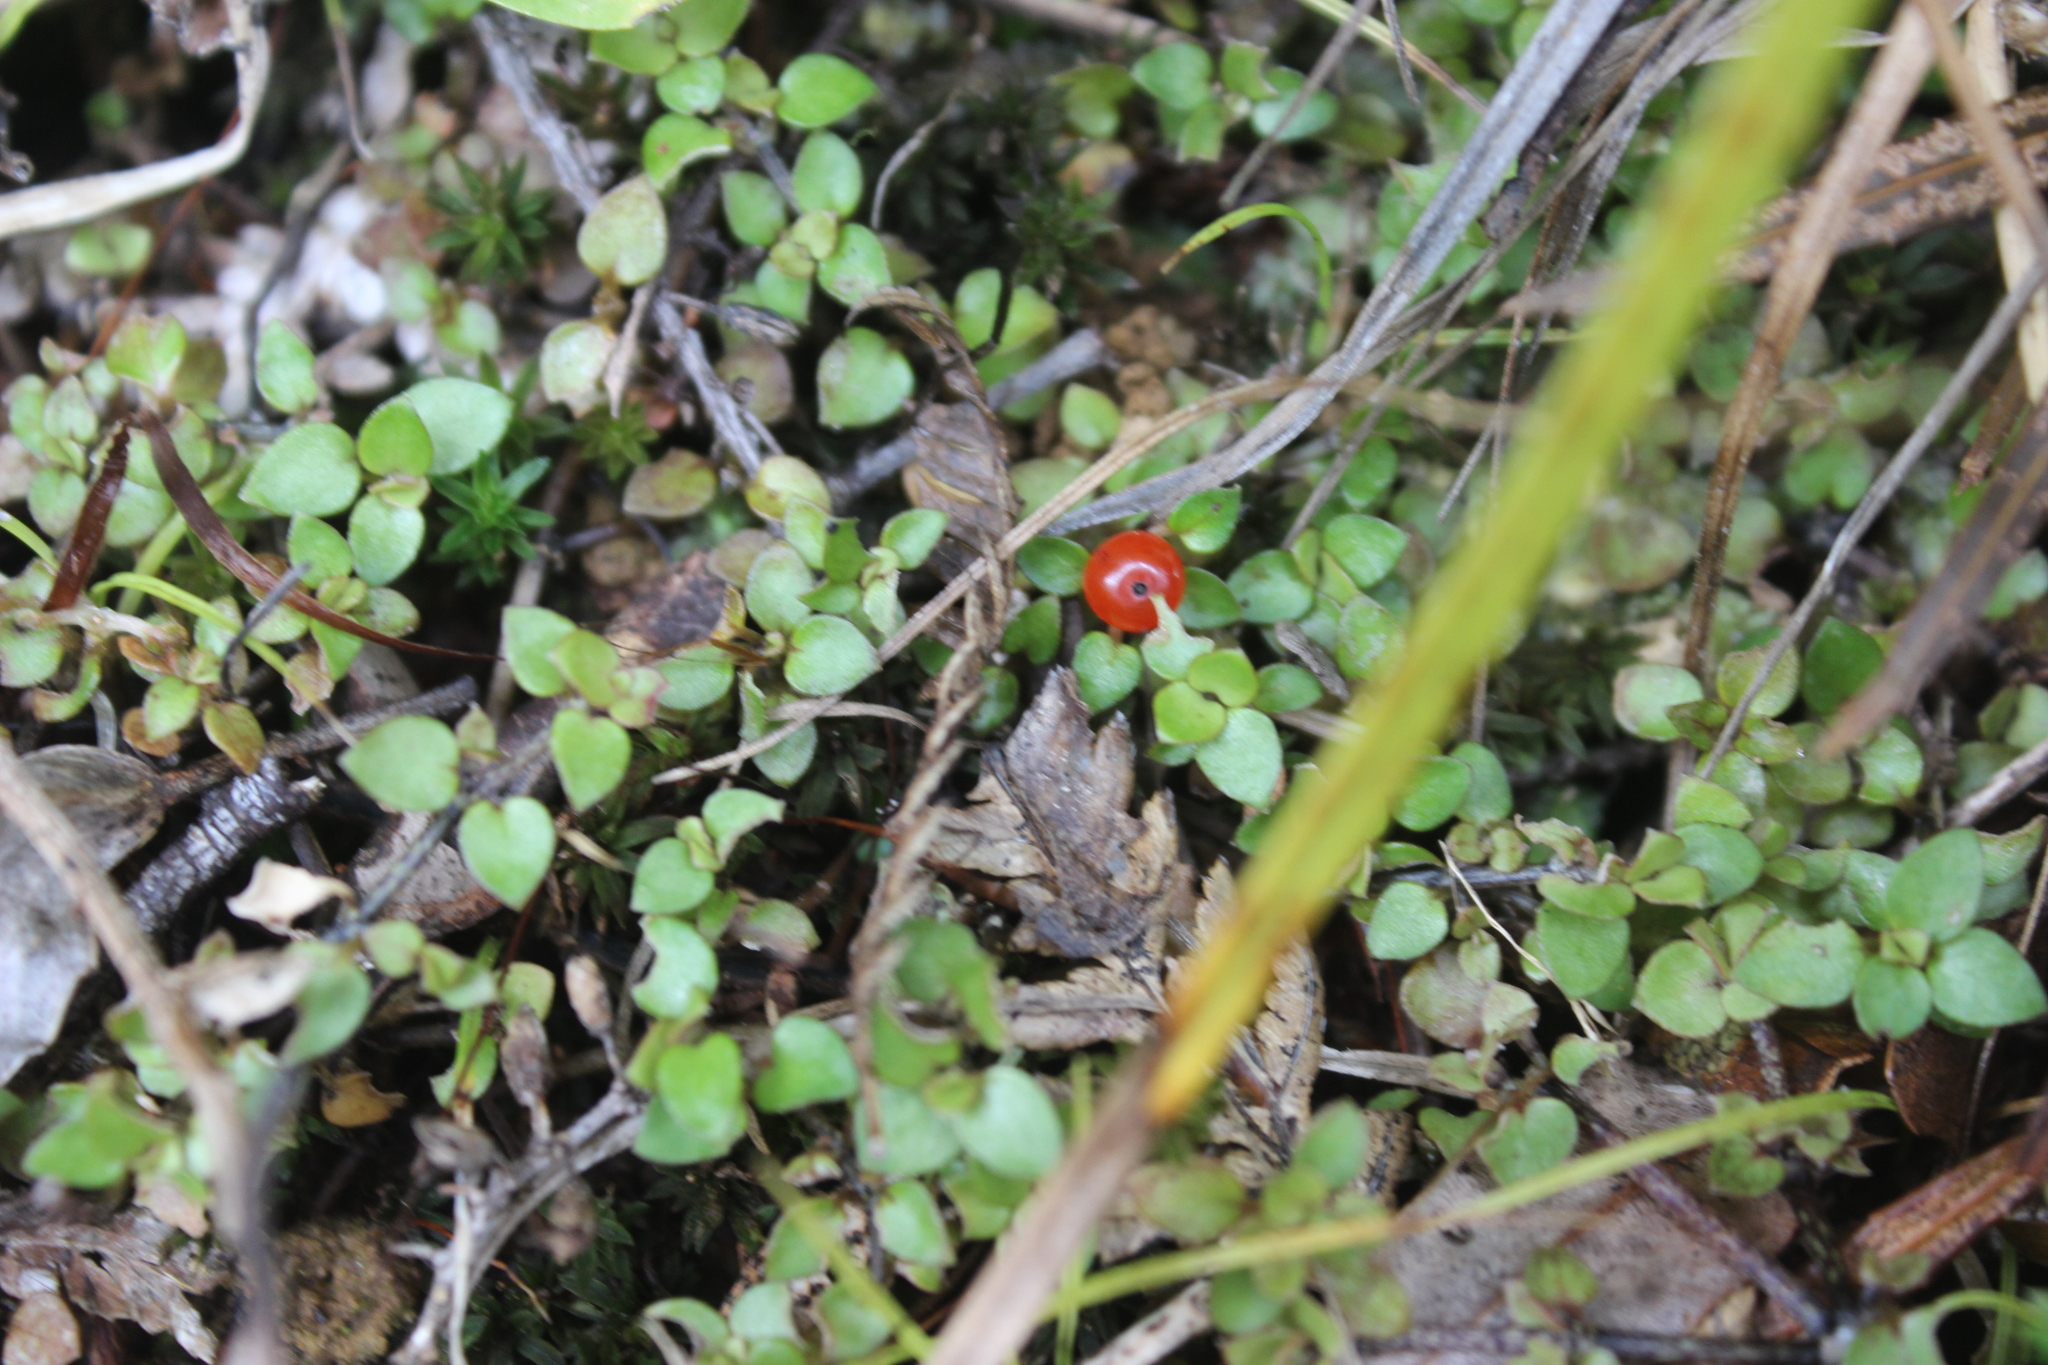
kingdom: Plantae
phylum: Tracheophyta
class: Magnoliopsida
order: Gentianales
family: Rubiaceae
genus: Nertera
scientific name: Nertera granadensis
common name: Beadplant
